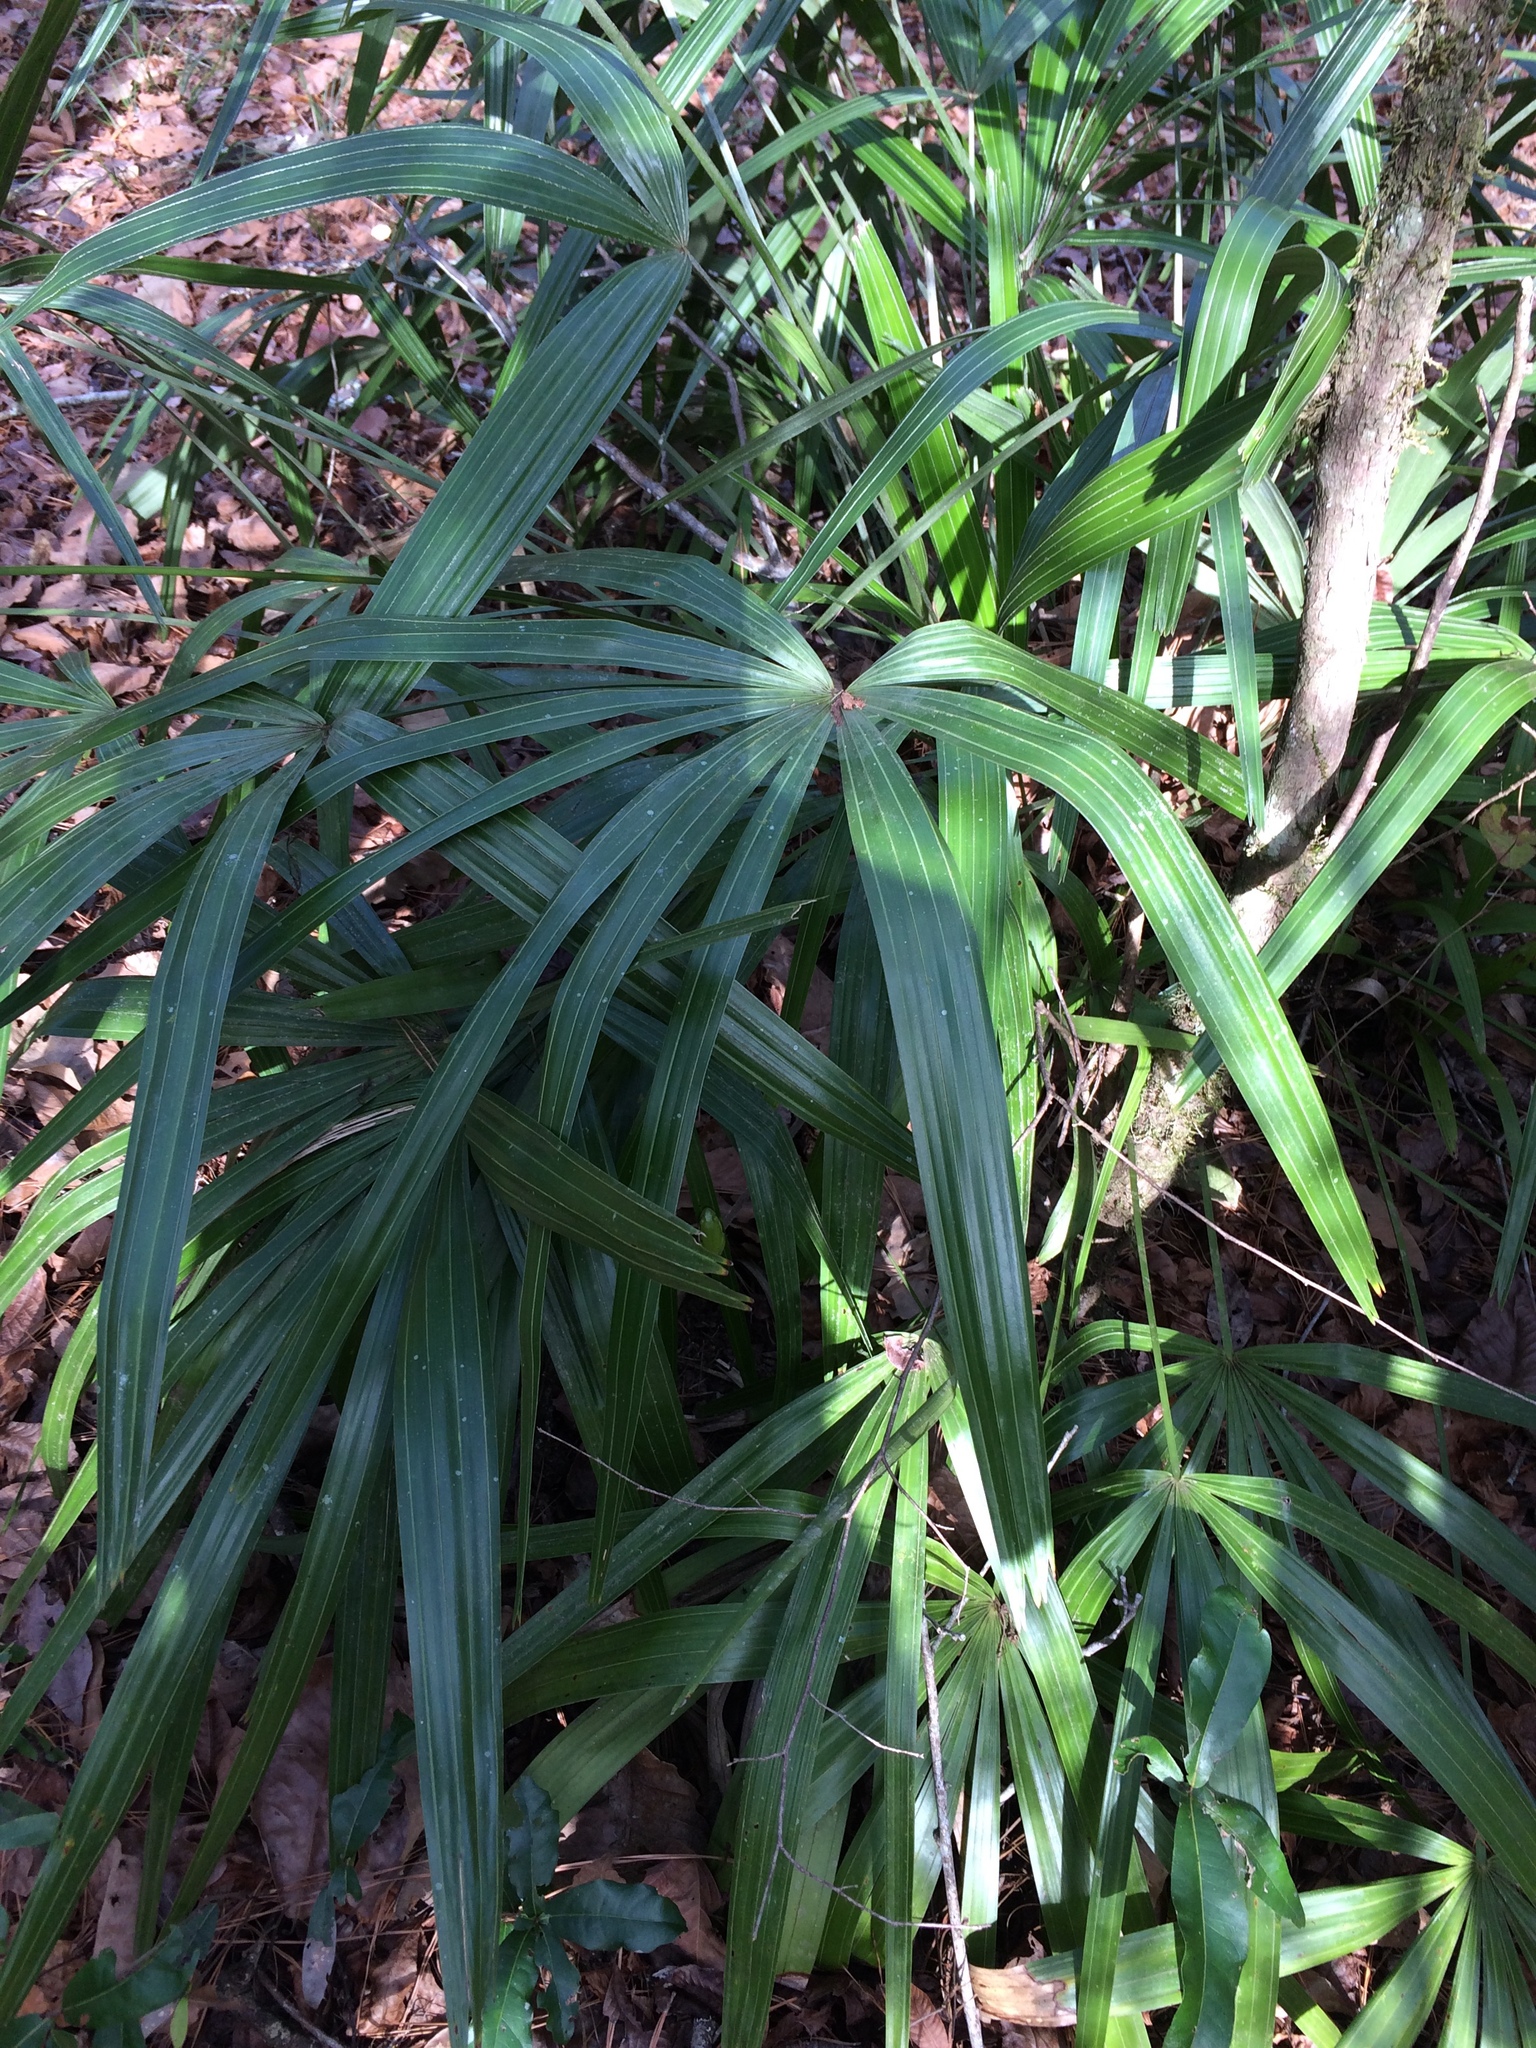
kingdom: Plantae
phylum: Tracheophyta
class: Liliopsida
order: Arecales
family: Arecaceae
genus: Rhapidophyllum
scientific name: Rhapidophyllum hystrix
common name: Porcupine palm
